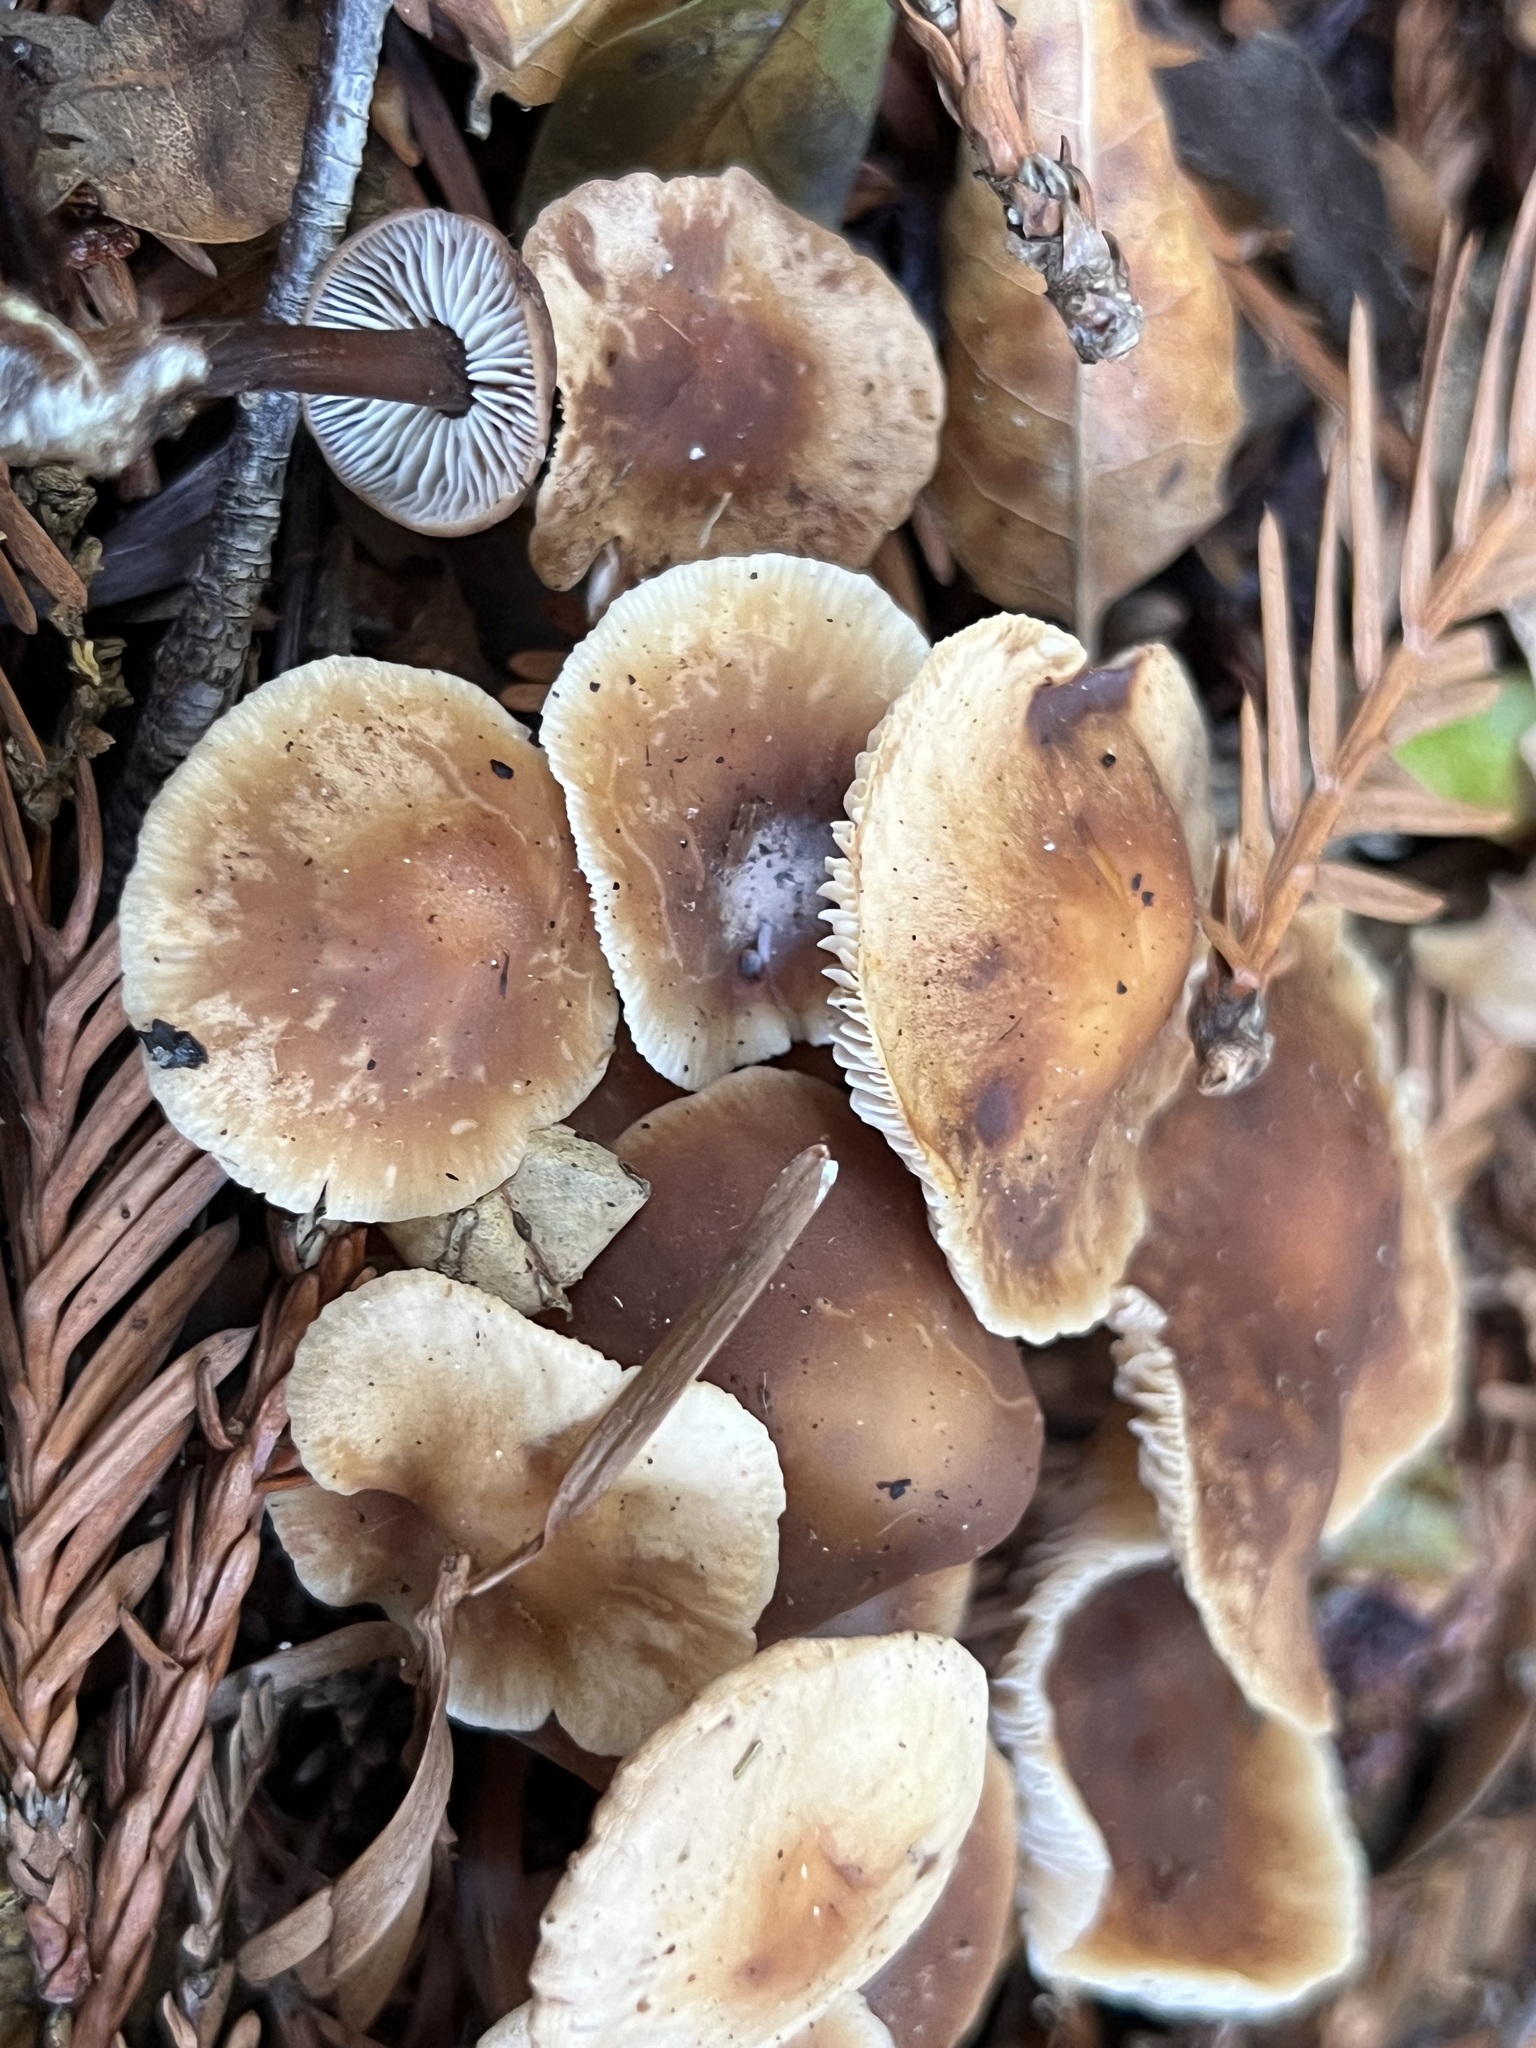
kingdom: Fungi
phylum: Basidiomycota
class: Agaricomycetes
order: Agaricales
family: Omphalotaceae
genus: Gymnopus
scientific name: Gymnopus brassicolens
